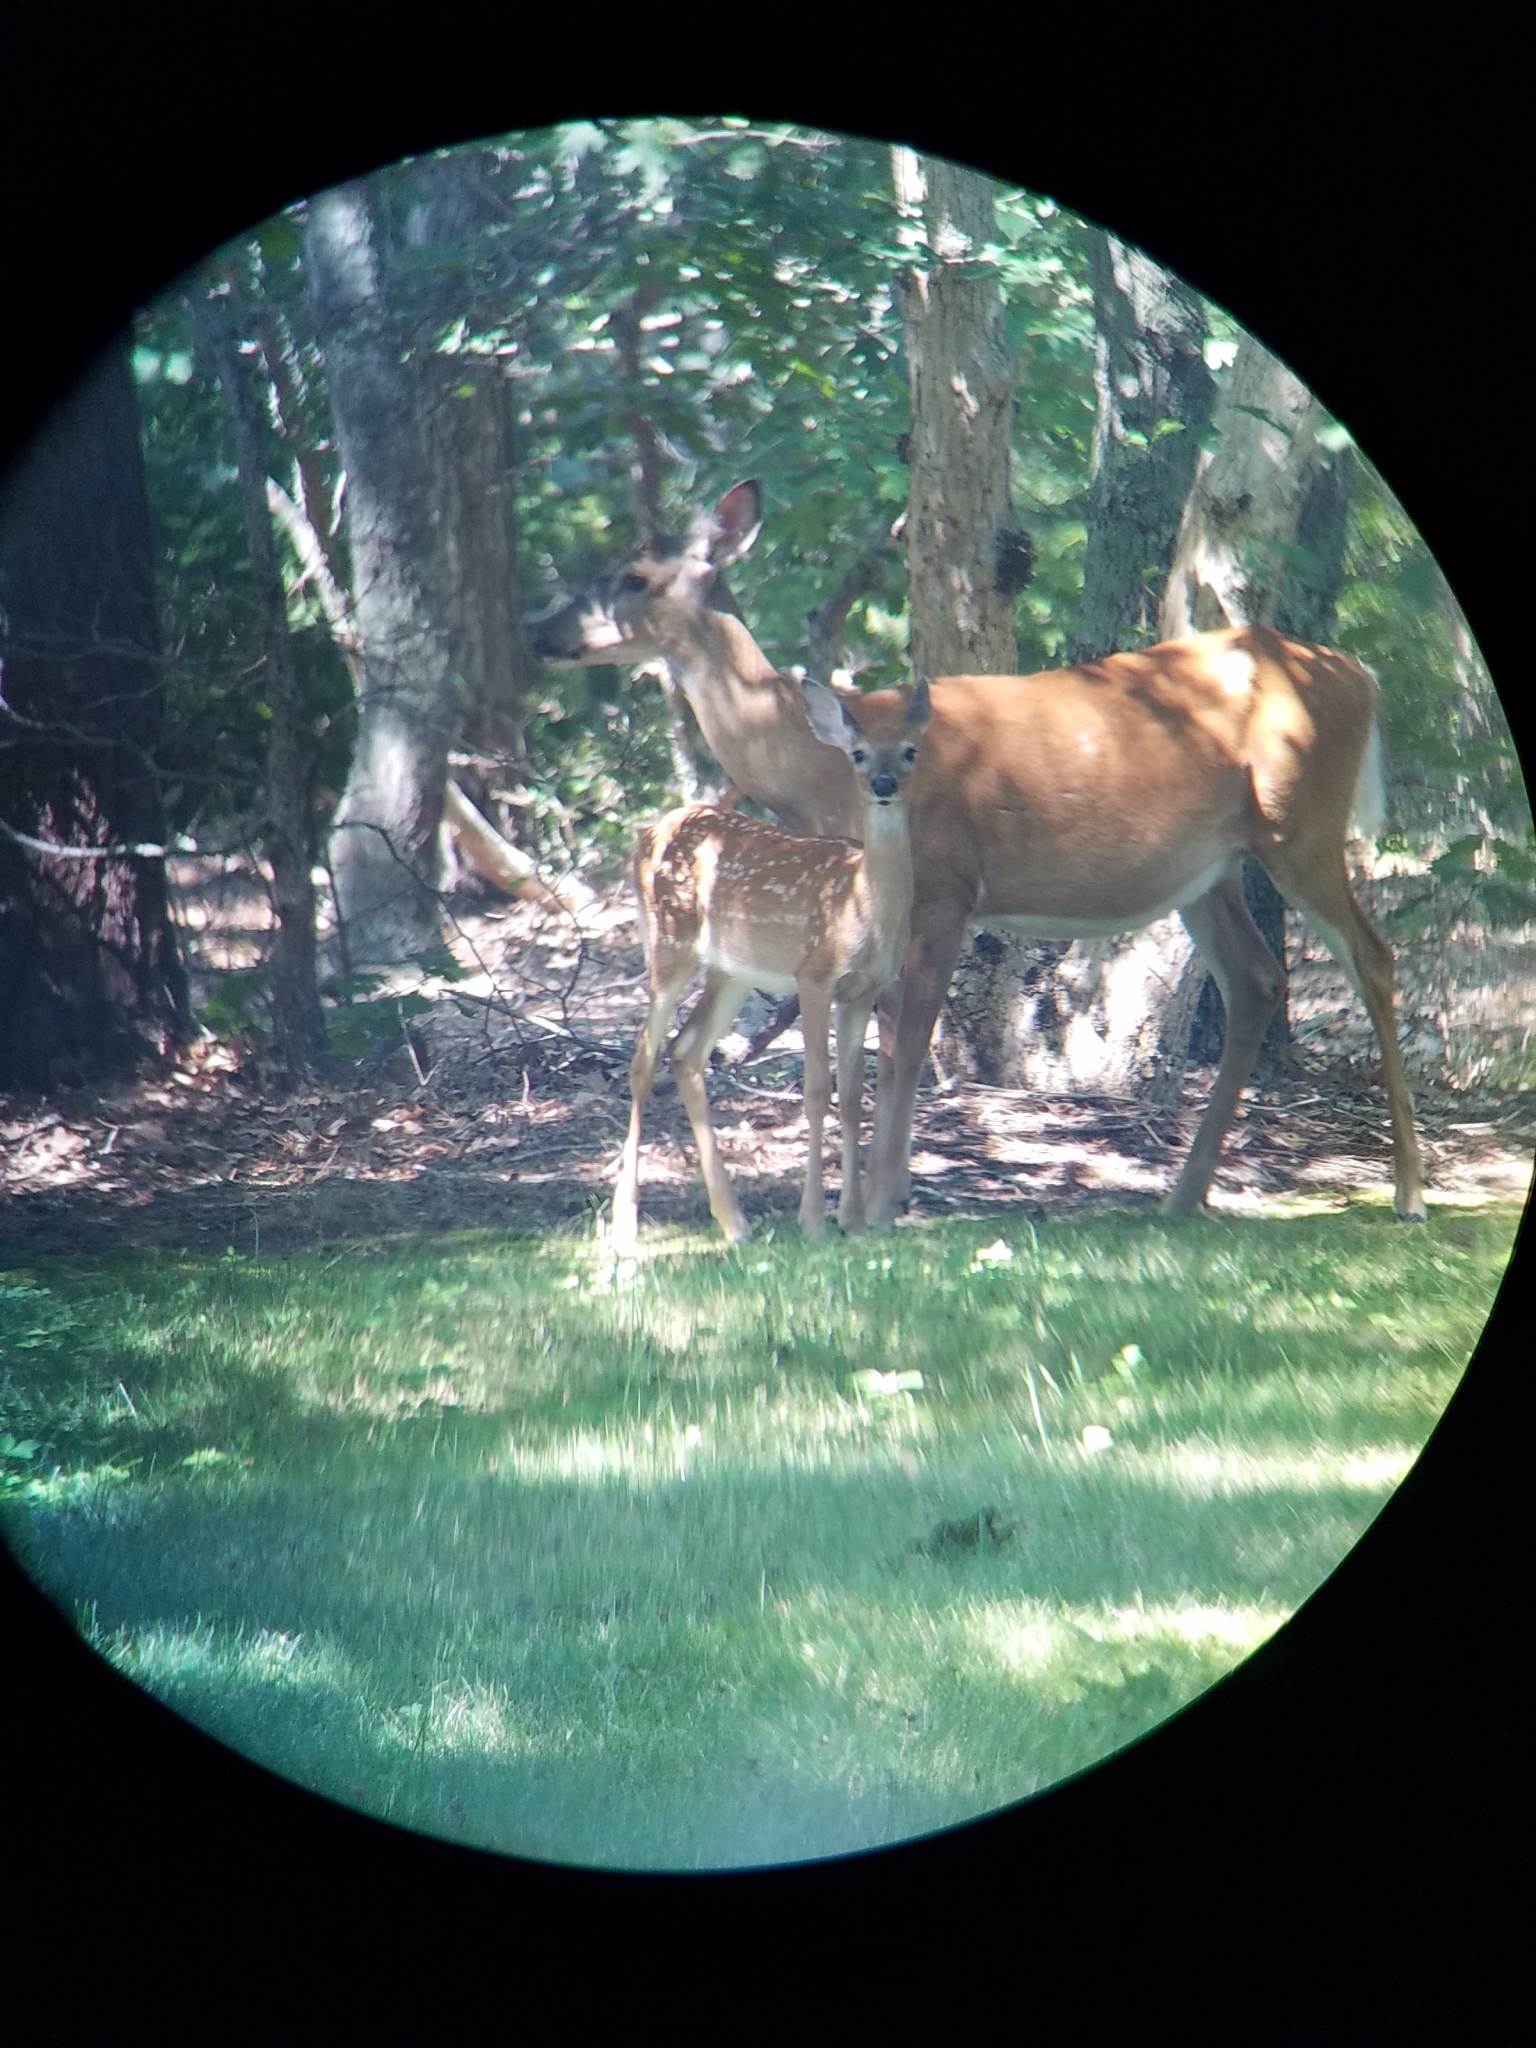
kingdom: Animalia
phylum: Chordata
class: Mammalia
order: Artiodactyla
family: Cervidae
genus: Odocoileus
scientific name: Odocoileus virginianus
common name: White-tailed deer
